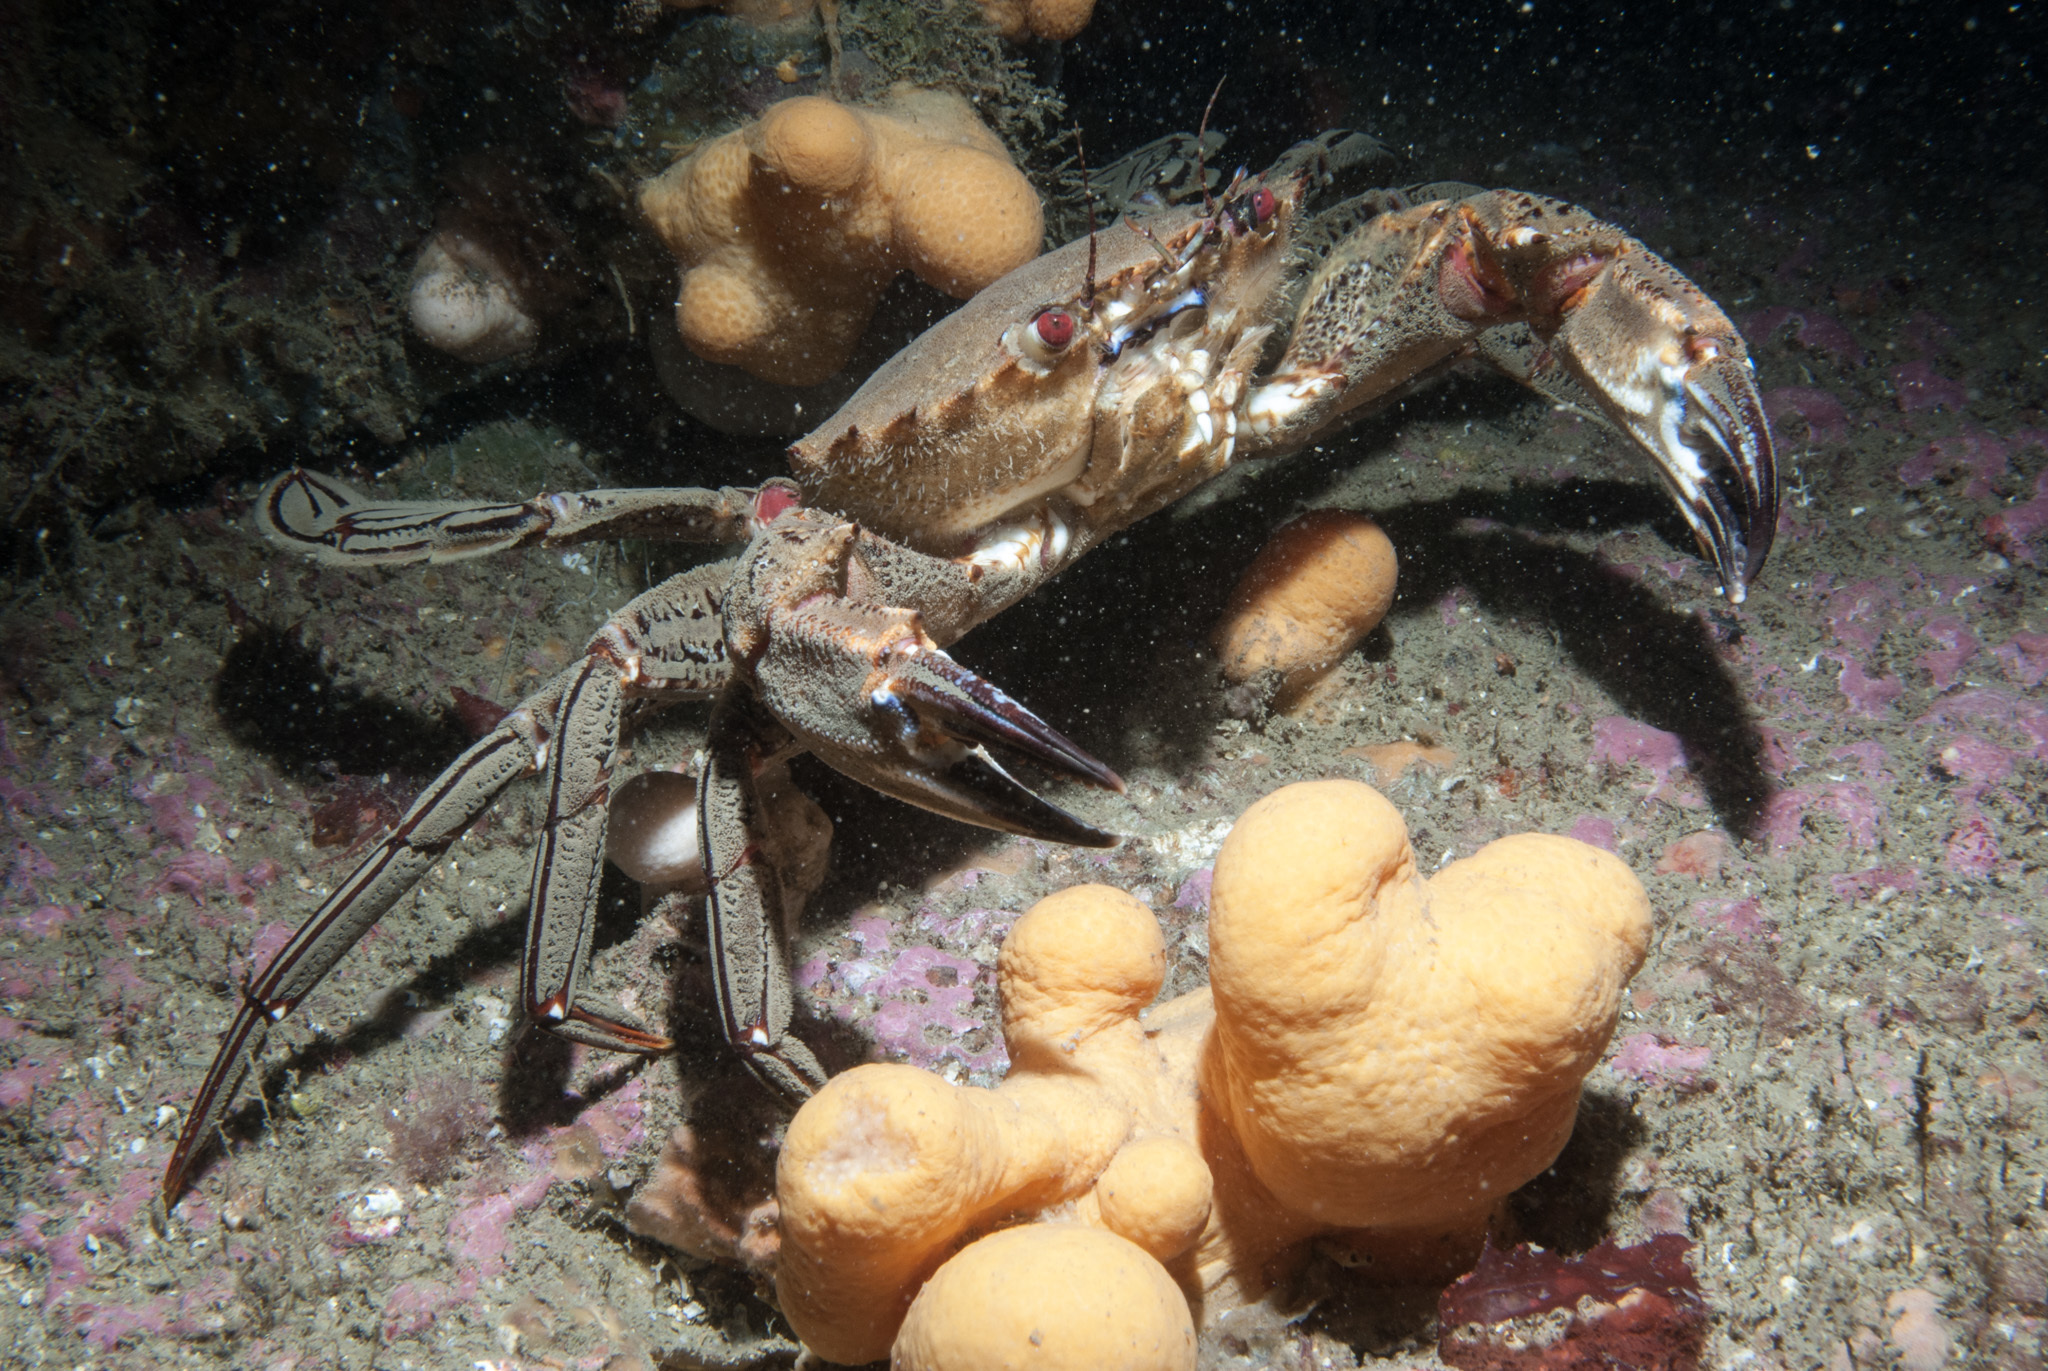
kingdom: Animalia
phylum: Arthropoda
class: Malacostraca
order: Decapoda
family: Polybiidae
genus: Necora
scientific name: Necora puber
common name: Velvet swimming crab
